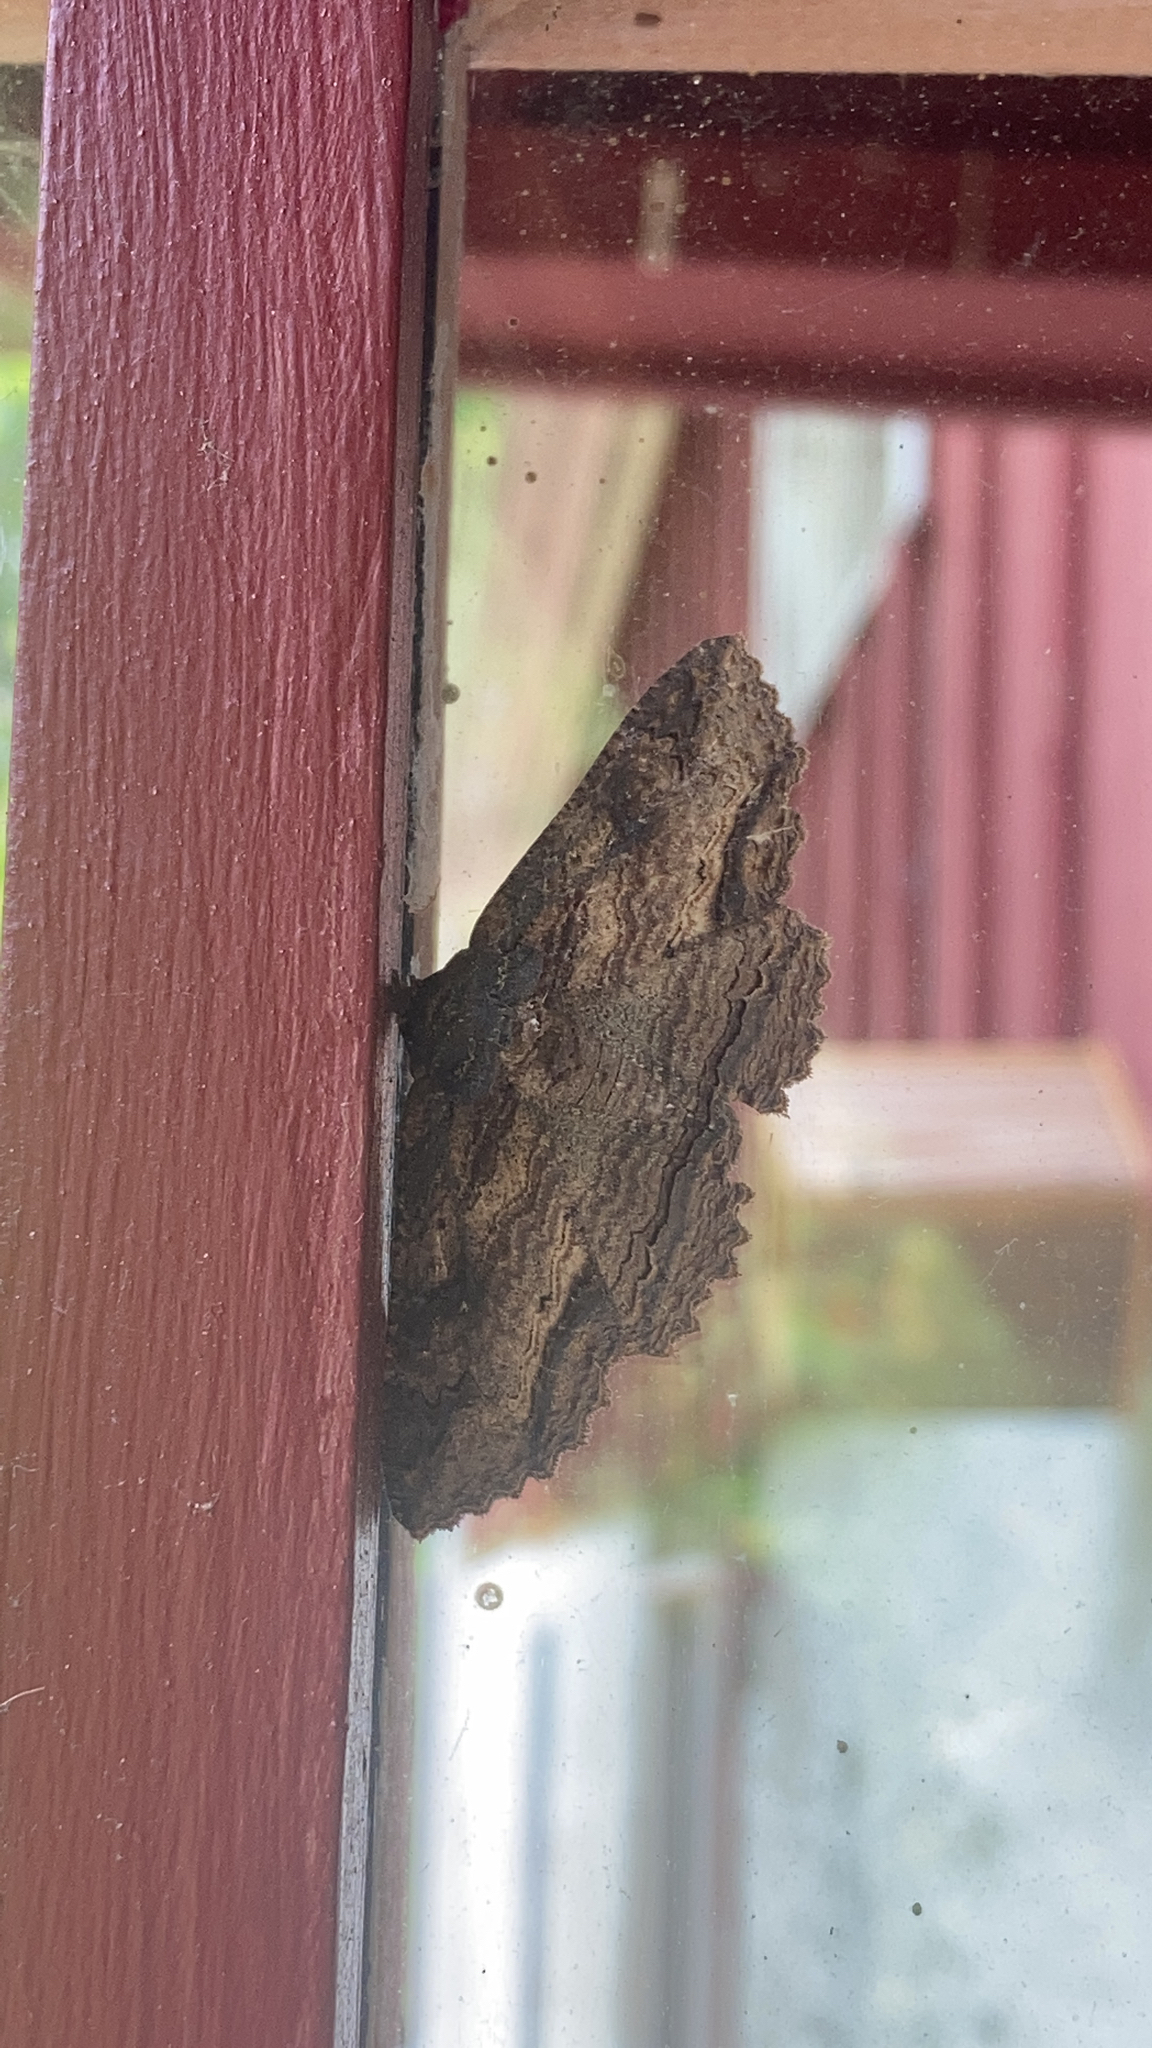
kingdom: Animalia
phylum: Arthropoda
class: Insecta
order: Lepidoptera
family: Erebidae
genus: Zale
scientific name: Zale lunata
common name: Lunate zale moth
